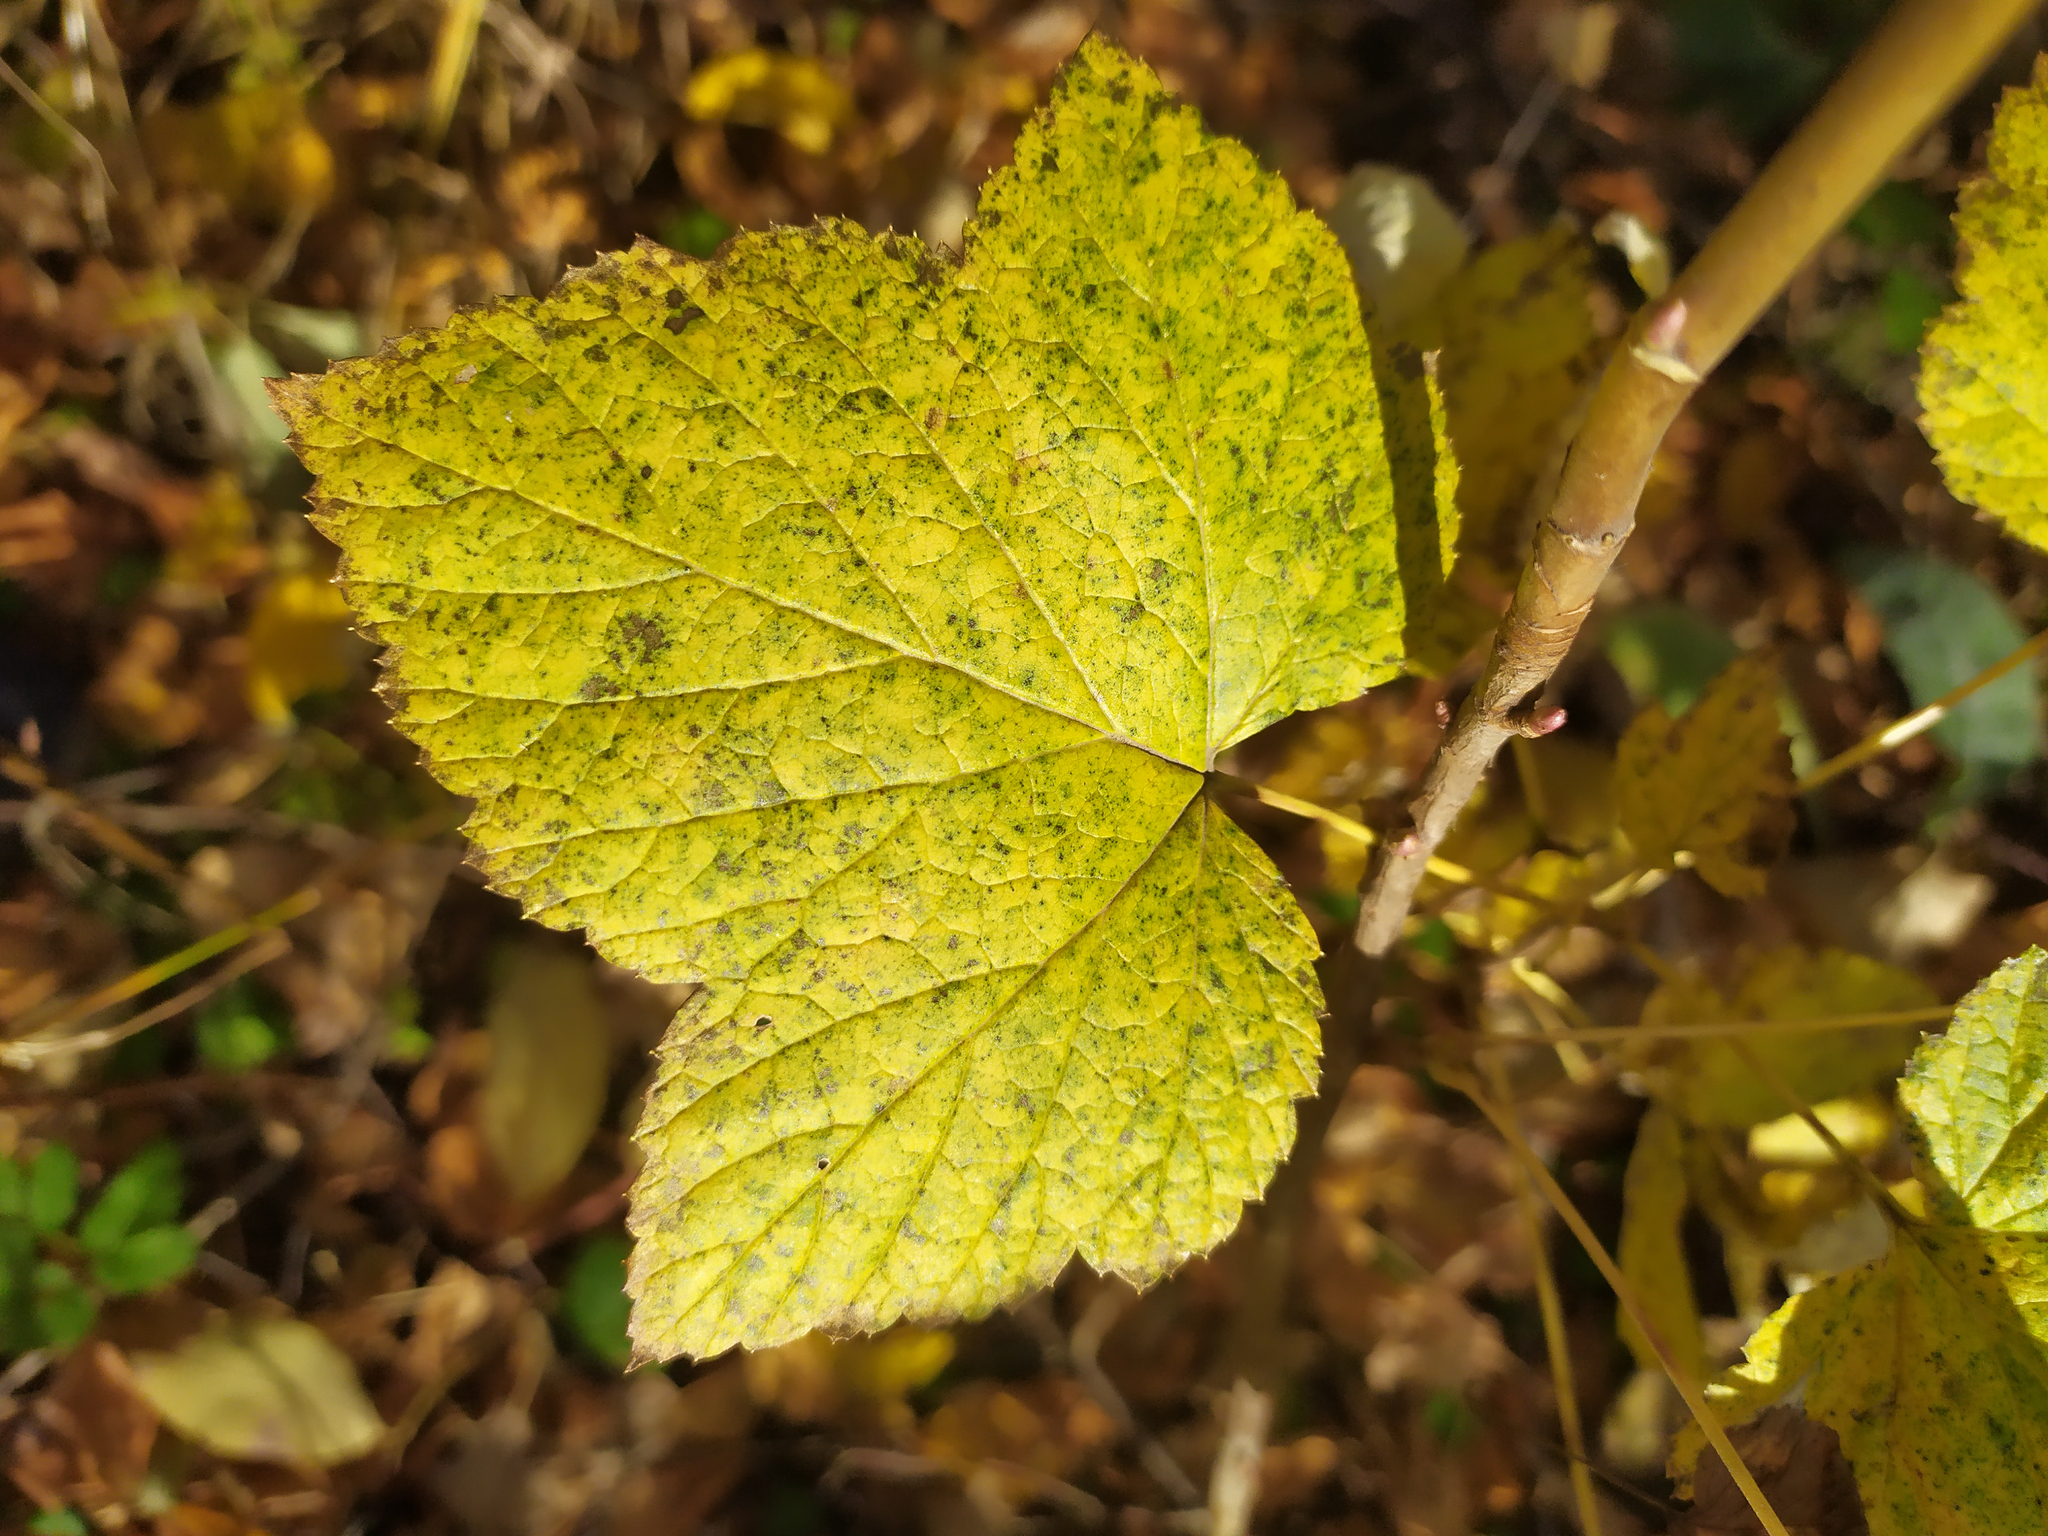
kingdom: Plantae
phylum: Tracheophyta
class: Magnoliopsida
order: Saxifragales
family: Grossulariaceae
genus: Ribes
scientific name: Ribes nigrum
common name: Black currant
